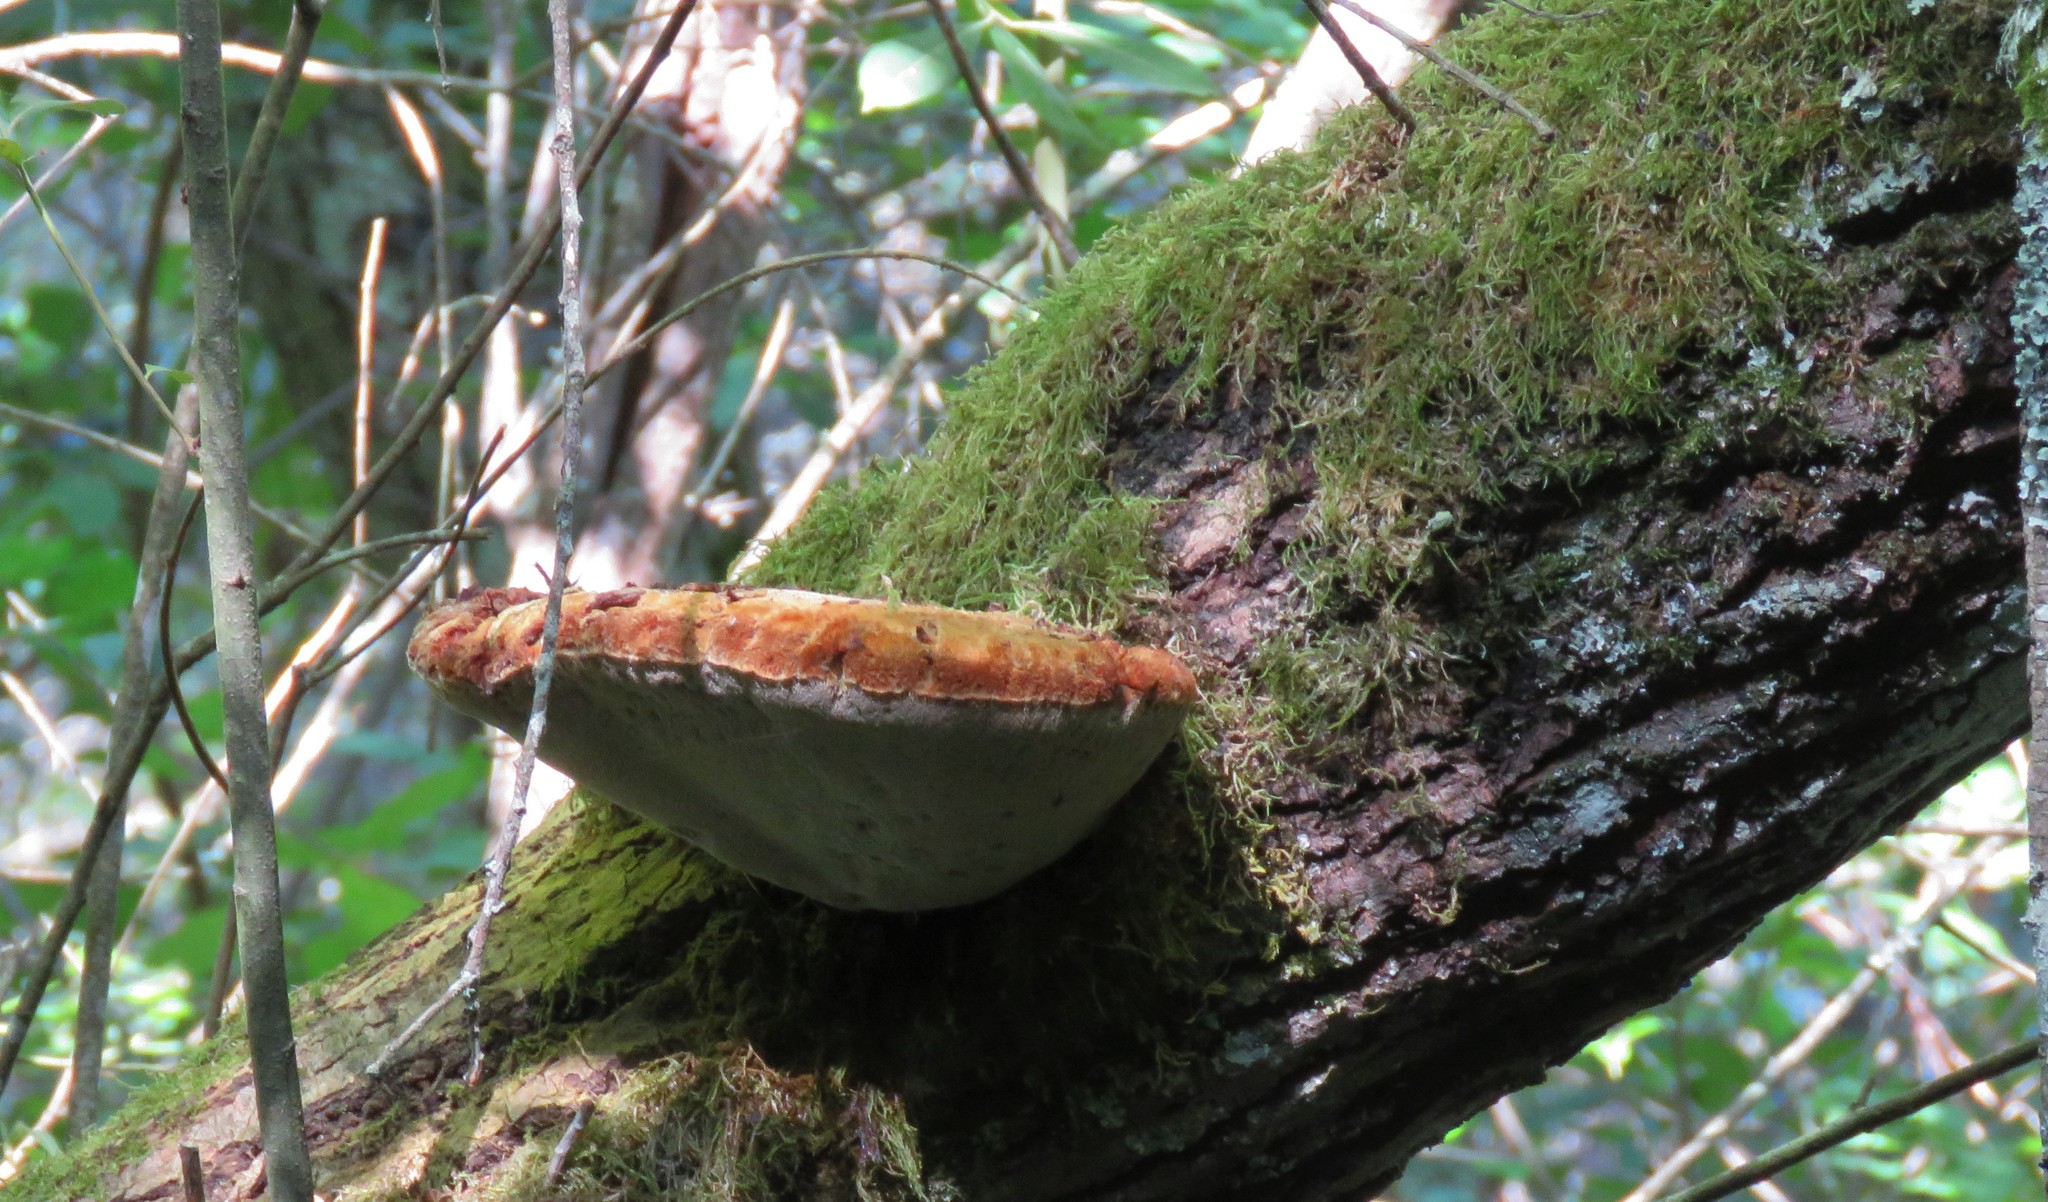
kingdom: Fungi
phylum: Basidiomycota
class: Agaricomycetes
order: Hymenochaetales
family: Hymenochaetaceae
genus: Inonotus
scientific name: Inonotus hispidus
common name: Shaggy bracket
